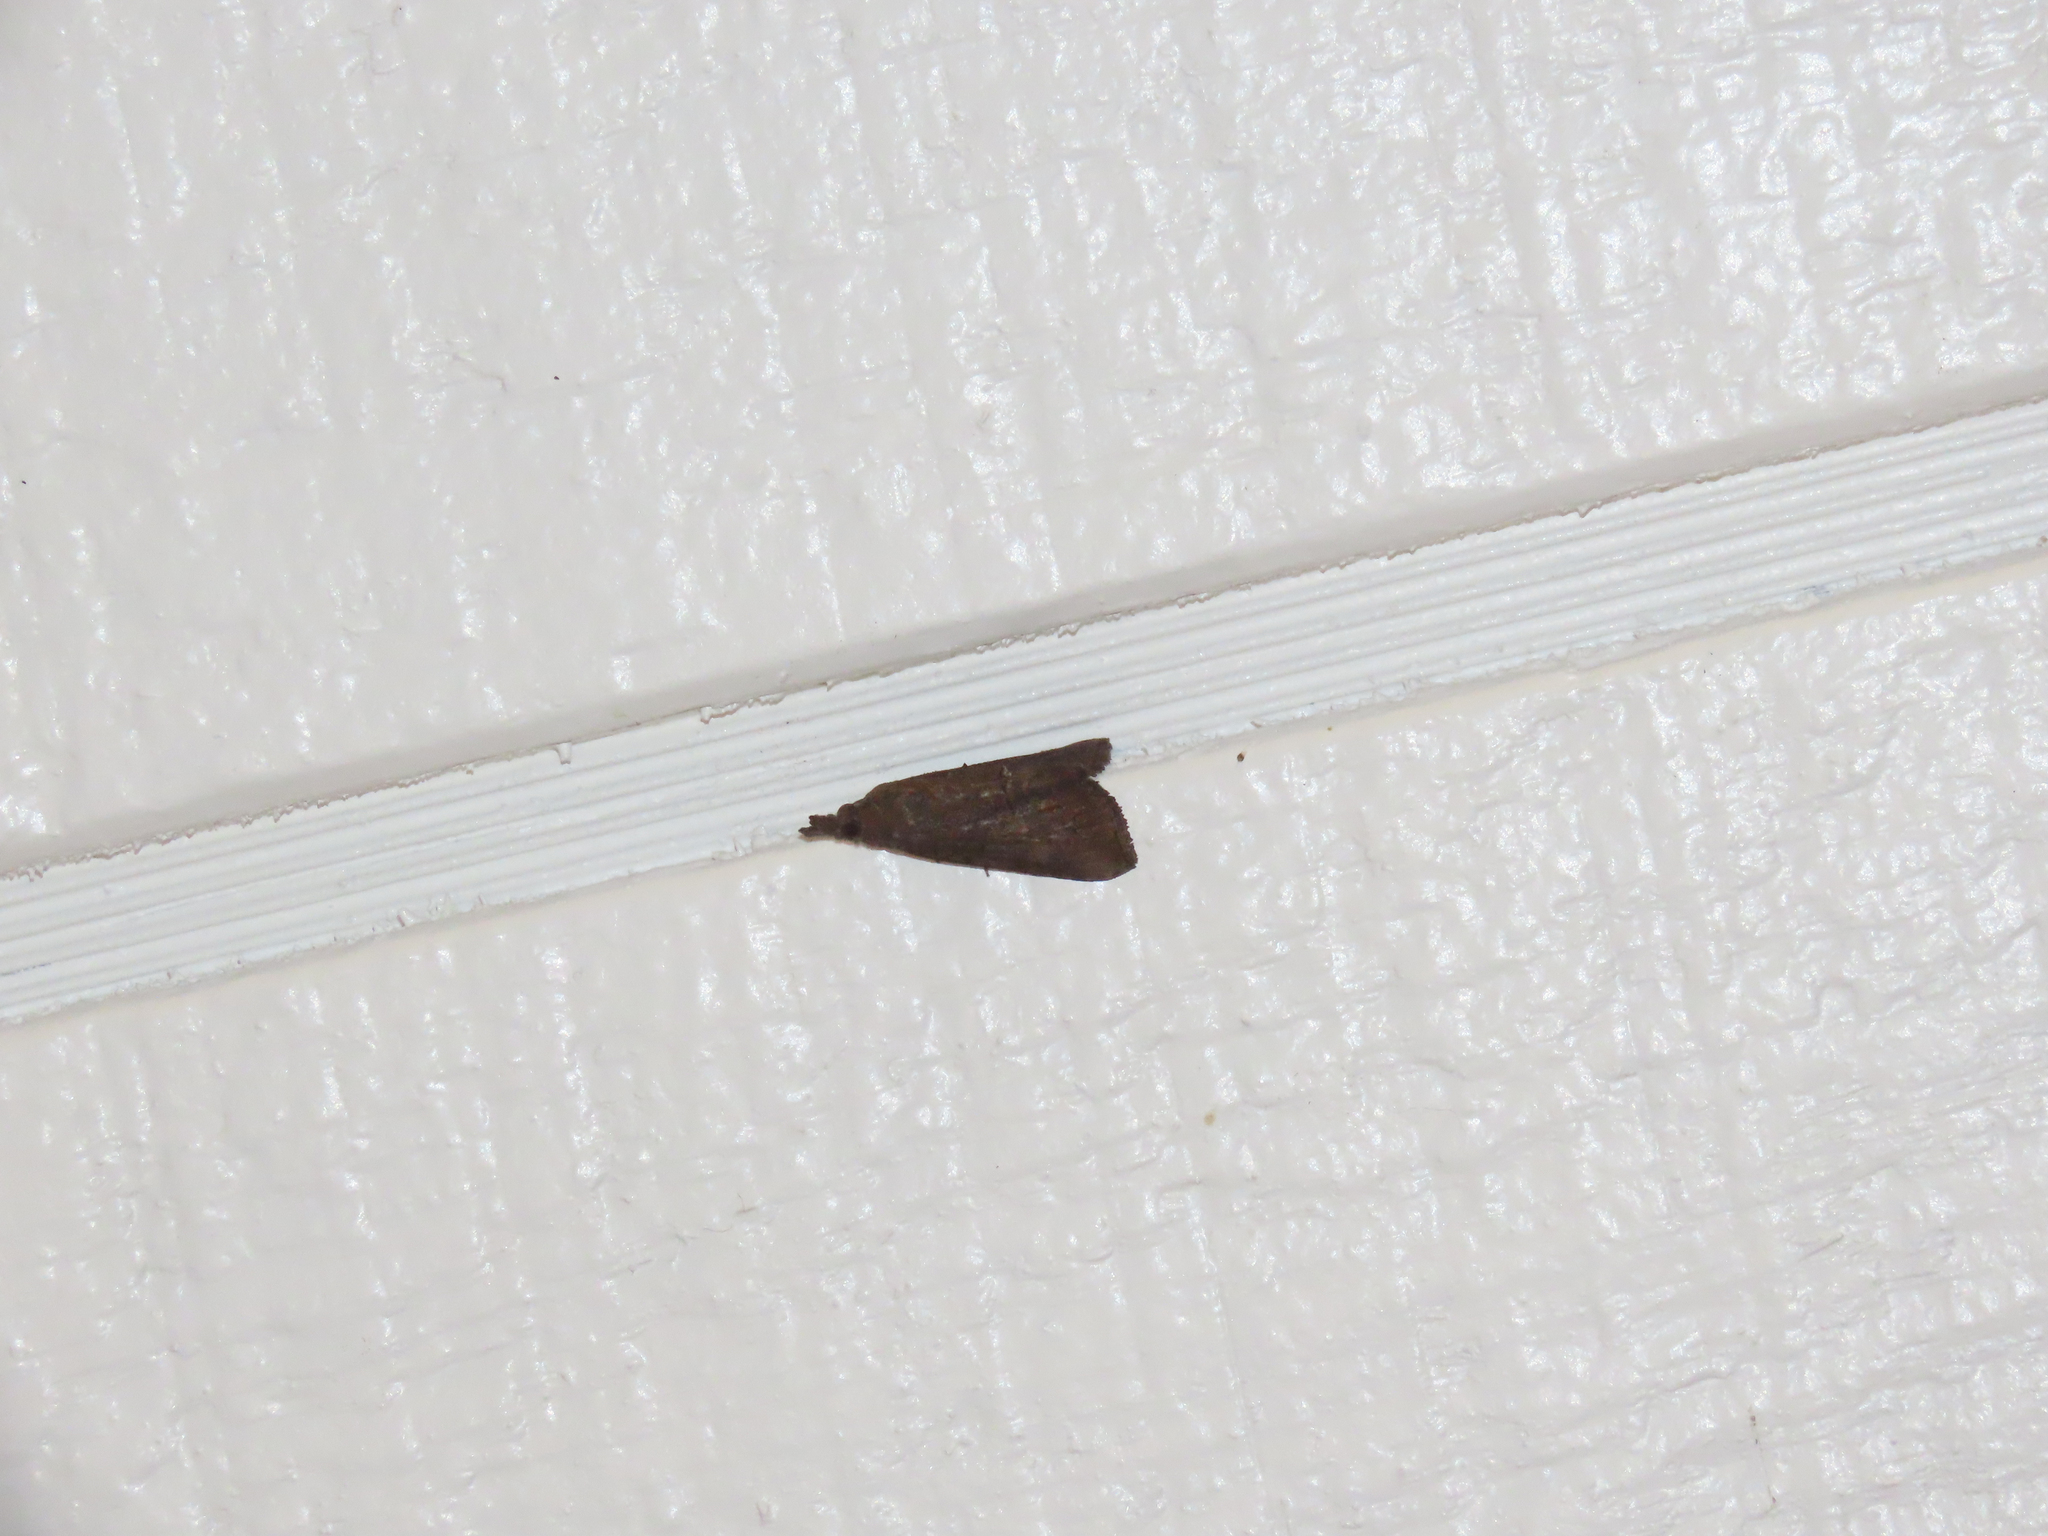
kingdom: Animalia
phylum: Arthropoda
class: Insecta
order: Lepidoptera
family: Erebidae
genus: Hypena
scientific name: Hypena scabra
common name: Green cloverworm
